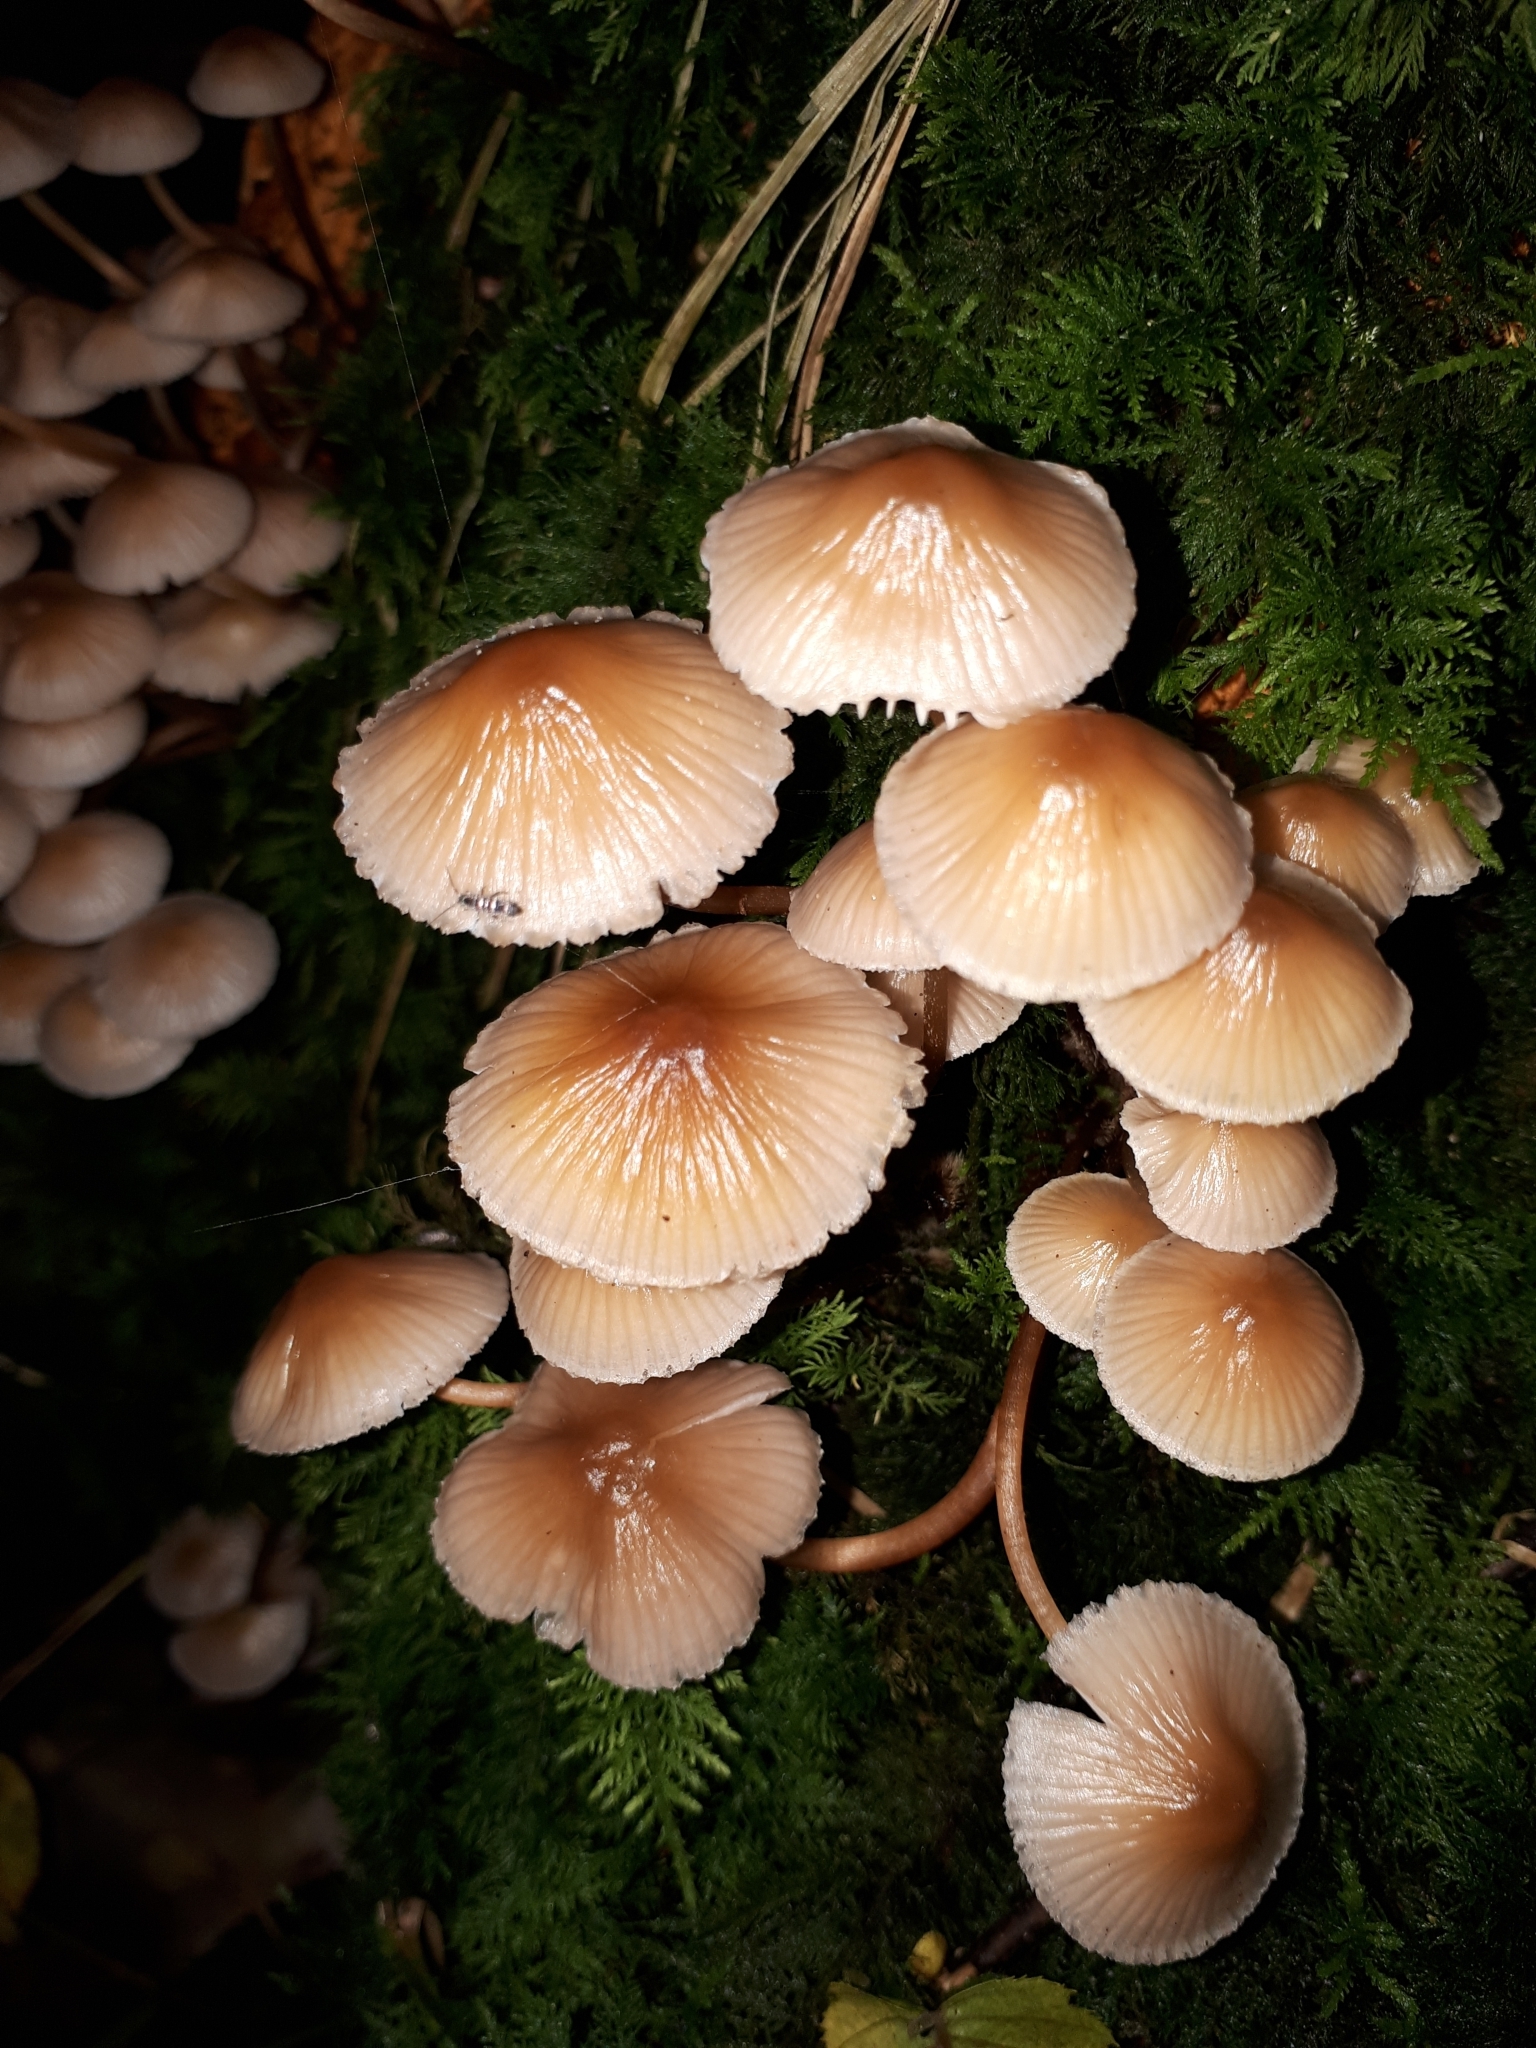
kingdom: Fungi
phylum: Basidiomycota
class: Agaricomycetes
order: Agaricales
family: Mycenaceae
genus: Mycena
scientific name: Mycena inclinata
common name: Clustered bonnet
